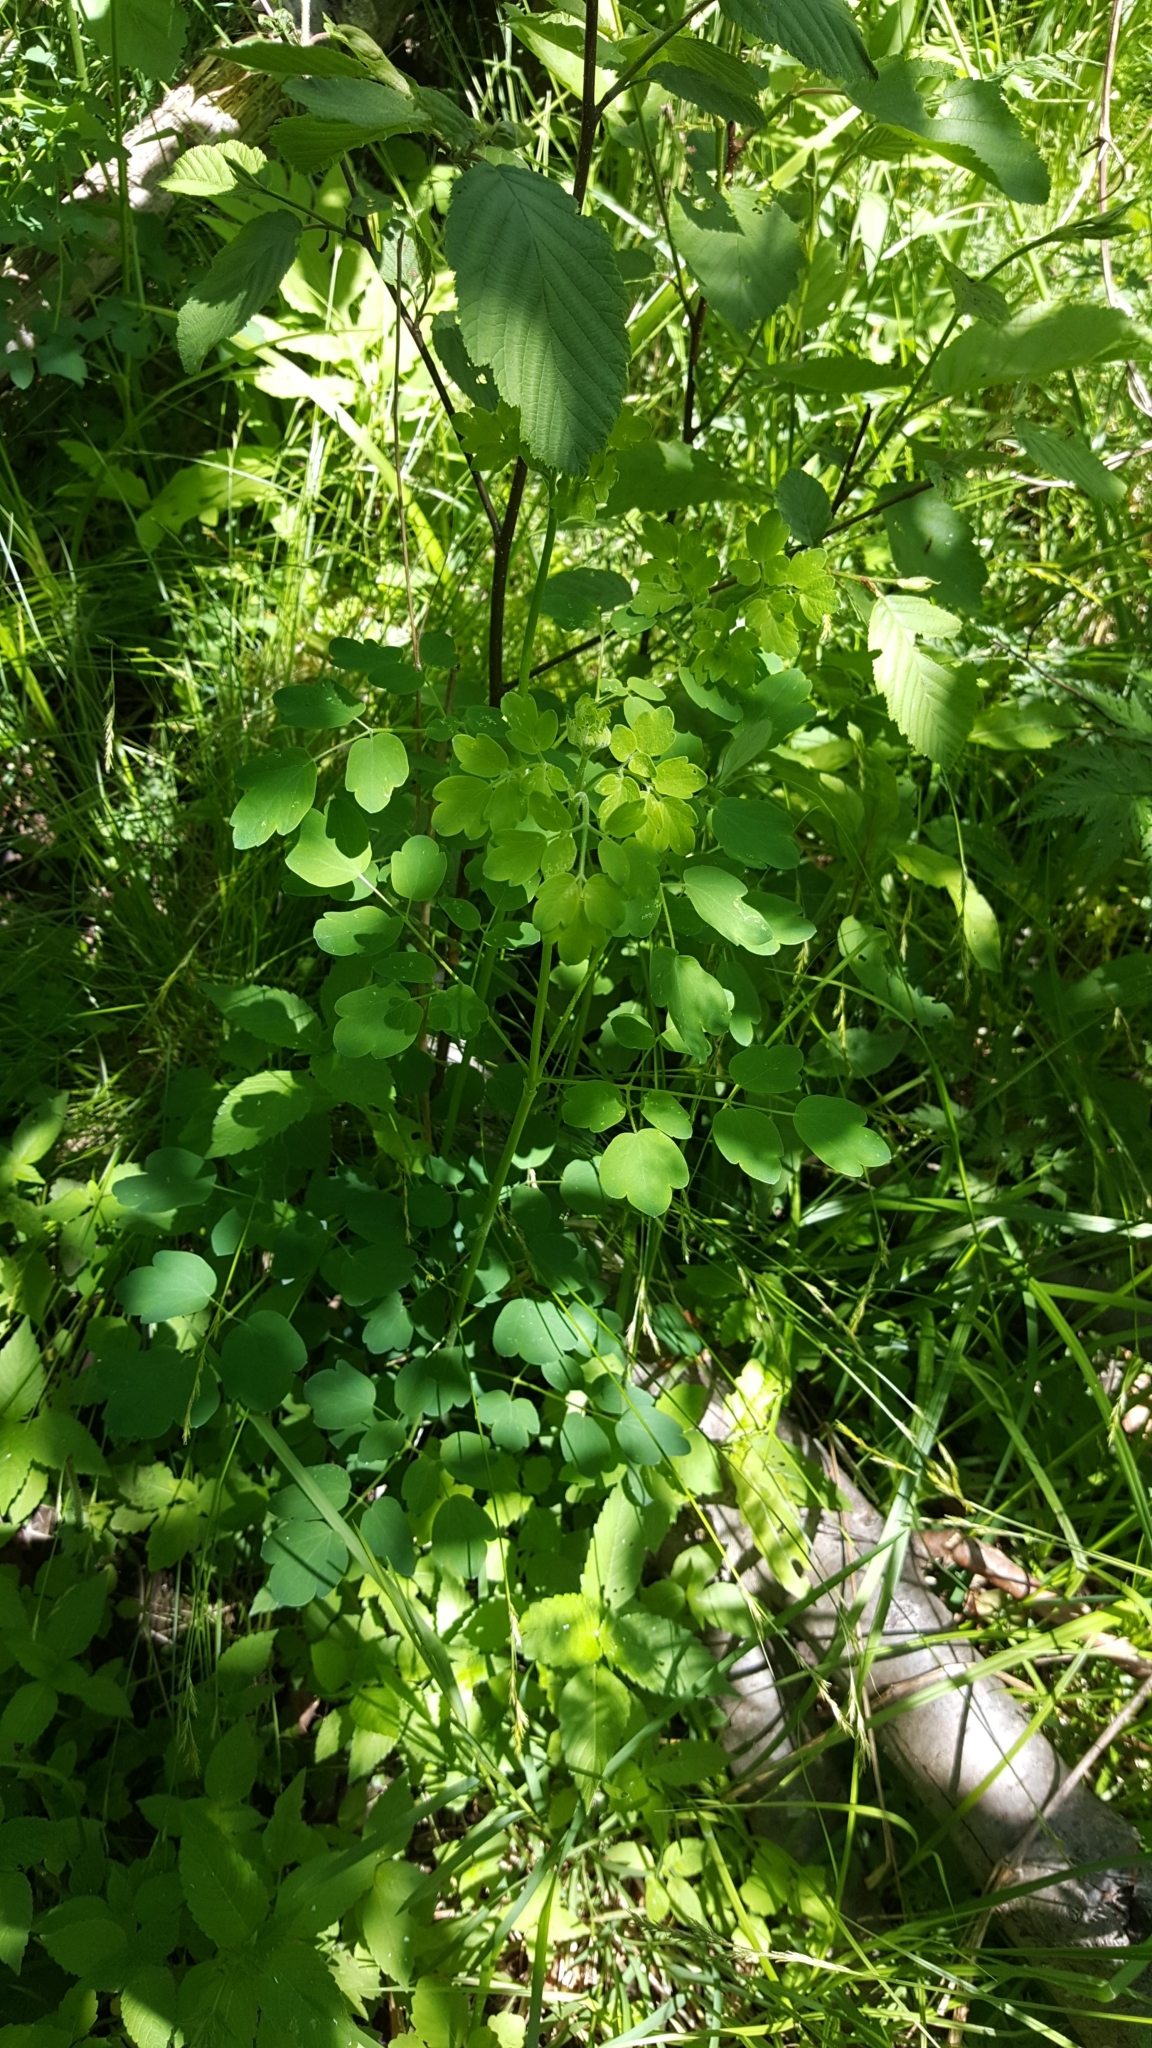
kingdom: Plantae
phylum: Tracheophyta
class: Magnoliopsida
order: Ranunculales
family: Ranunculaceae
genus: Thalictrum
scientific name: Thalictrum pubescens
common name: King-of-the-meadow
